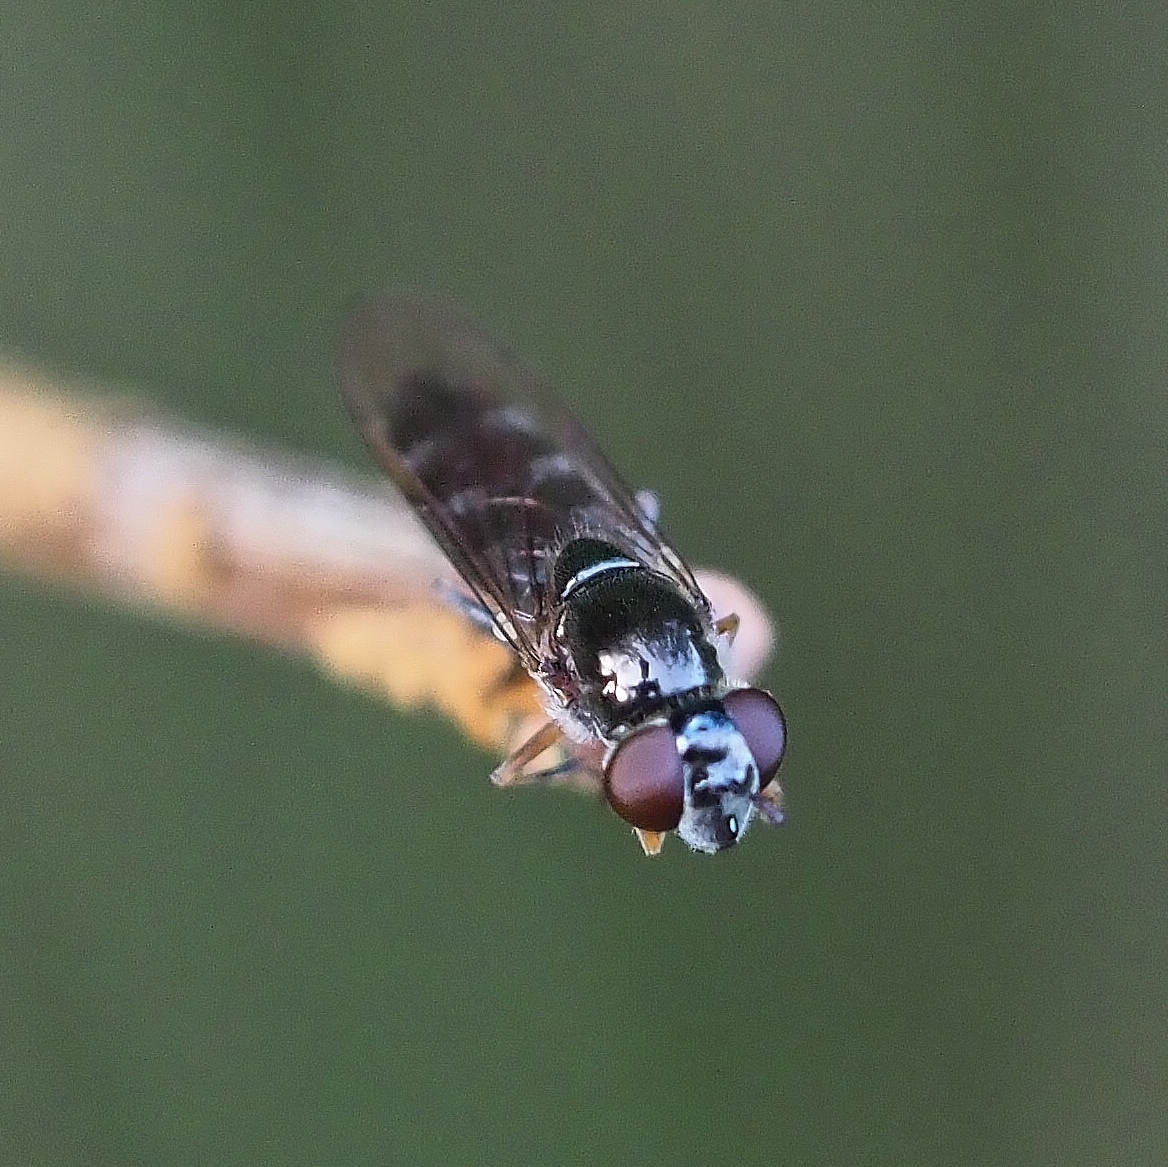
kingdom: Animalia
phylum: Arthropoda
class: Insecta
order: Diptera
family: Syrphidae
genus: Platycheirus
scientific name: Platycheirus albimanus
